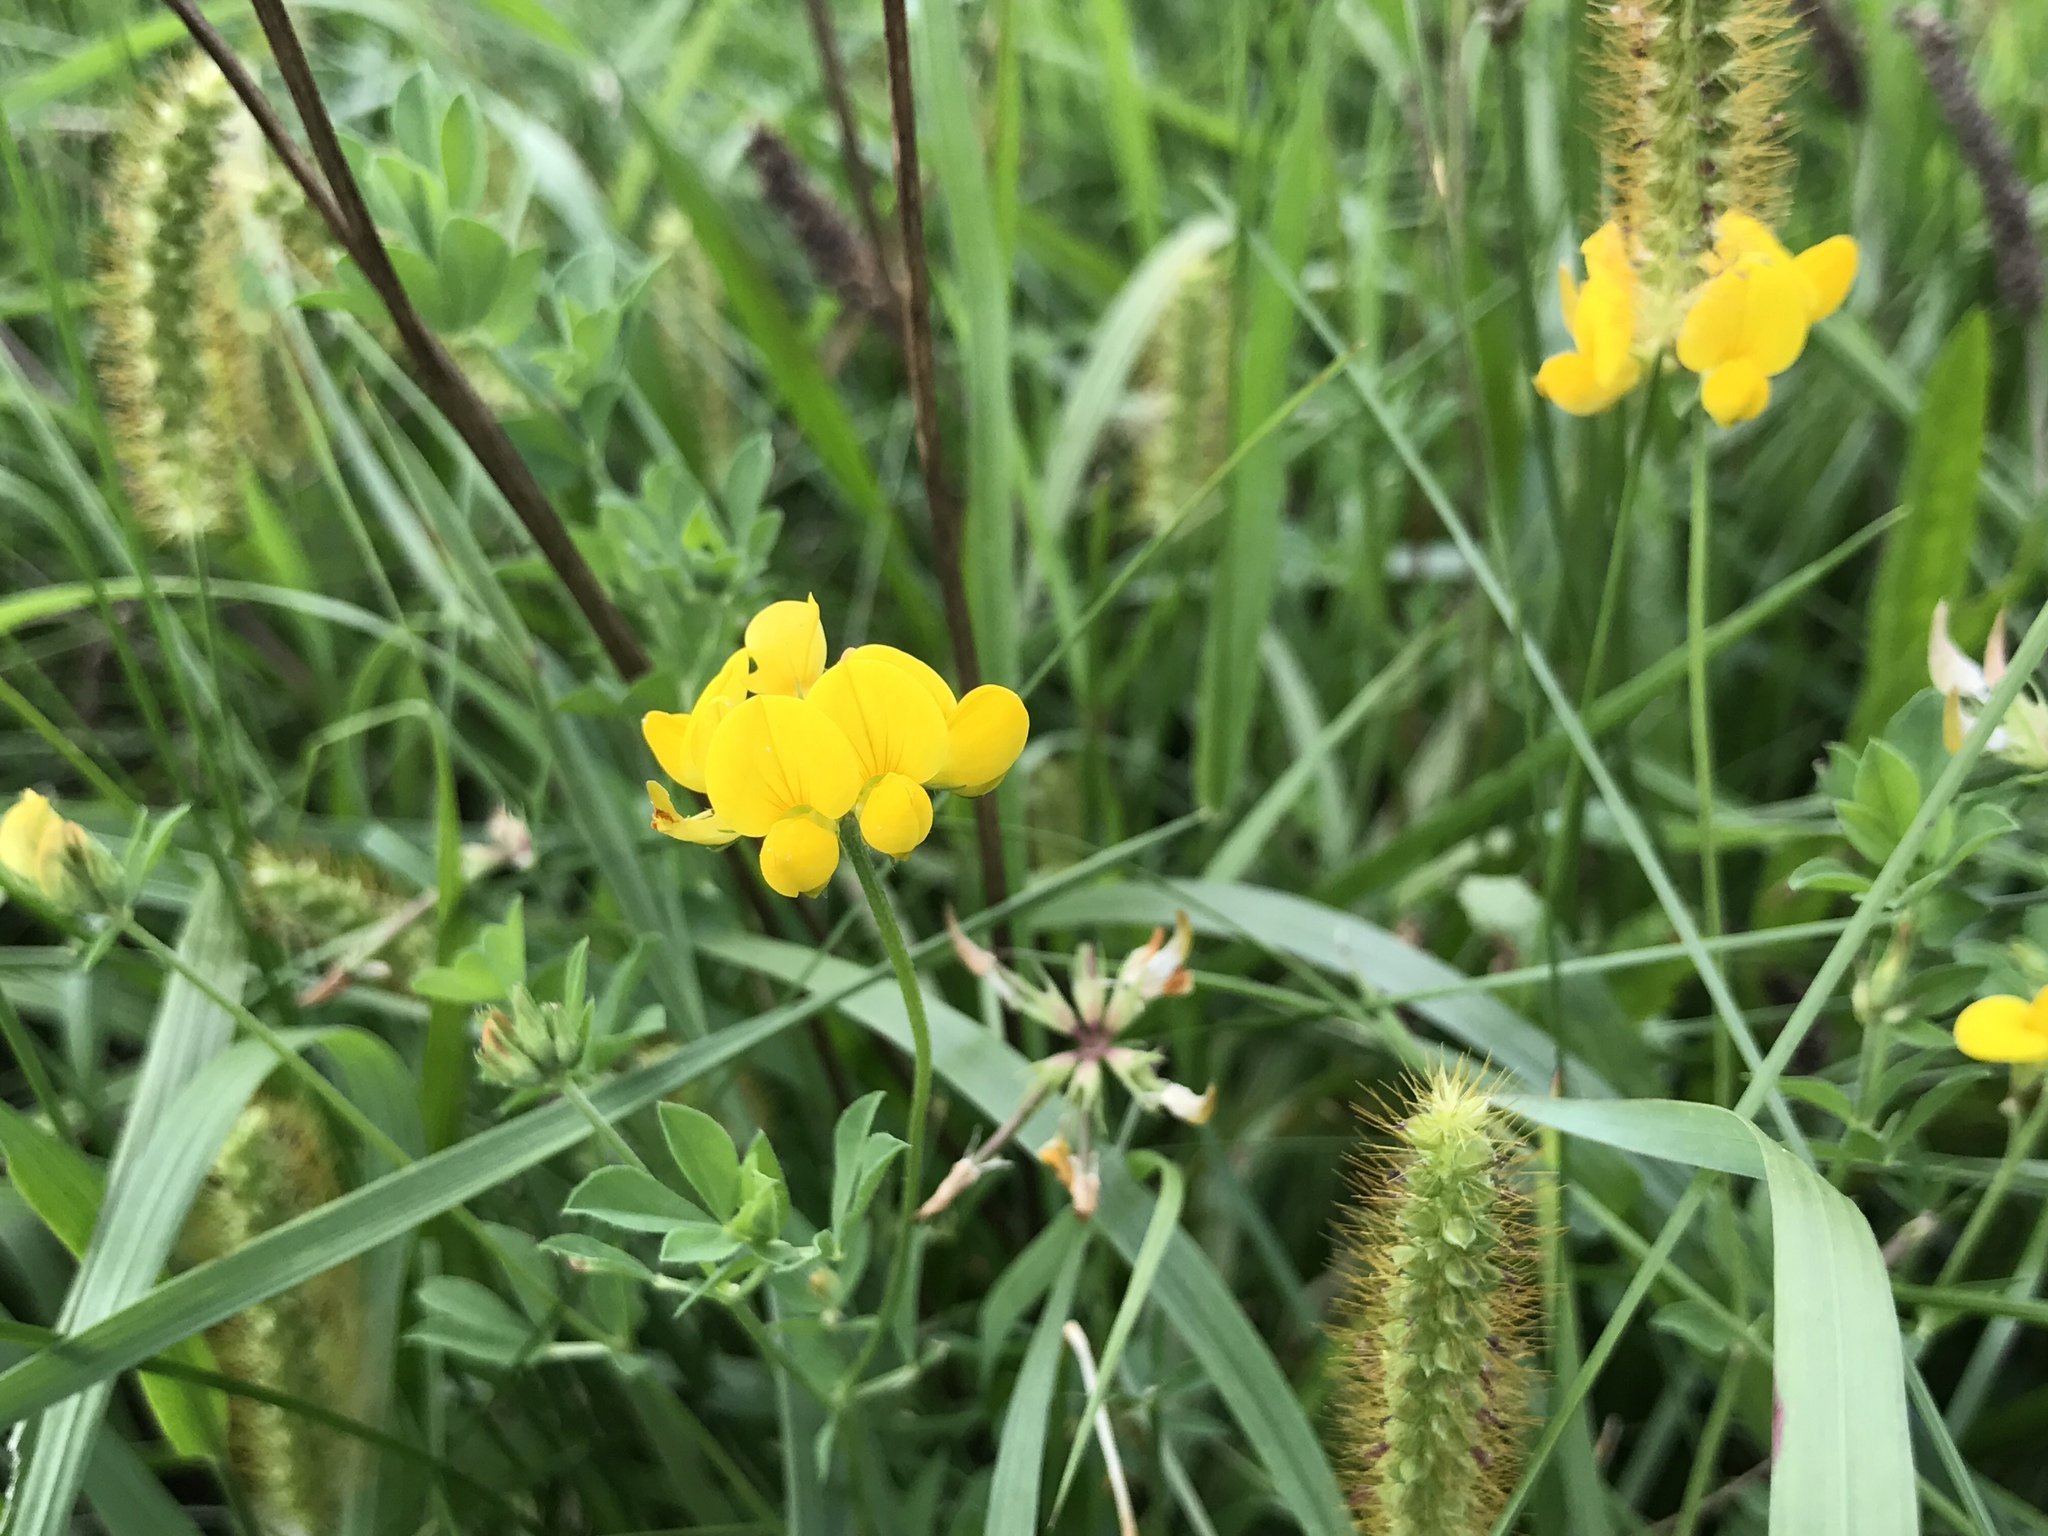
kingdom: Plantae
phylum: Tracheophyta
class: Magnoliopsida
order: Fabales
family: Fabaceae
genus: Lotus
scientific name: Lotus corniculatus
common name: Common bird's-foot-trefoil
